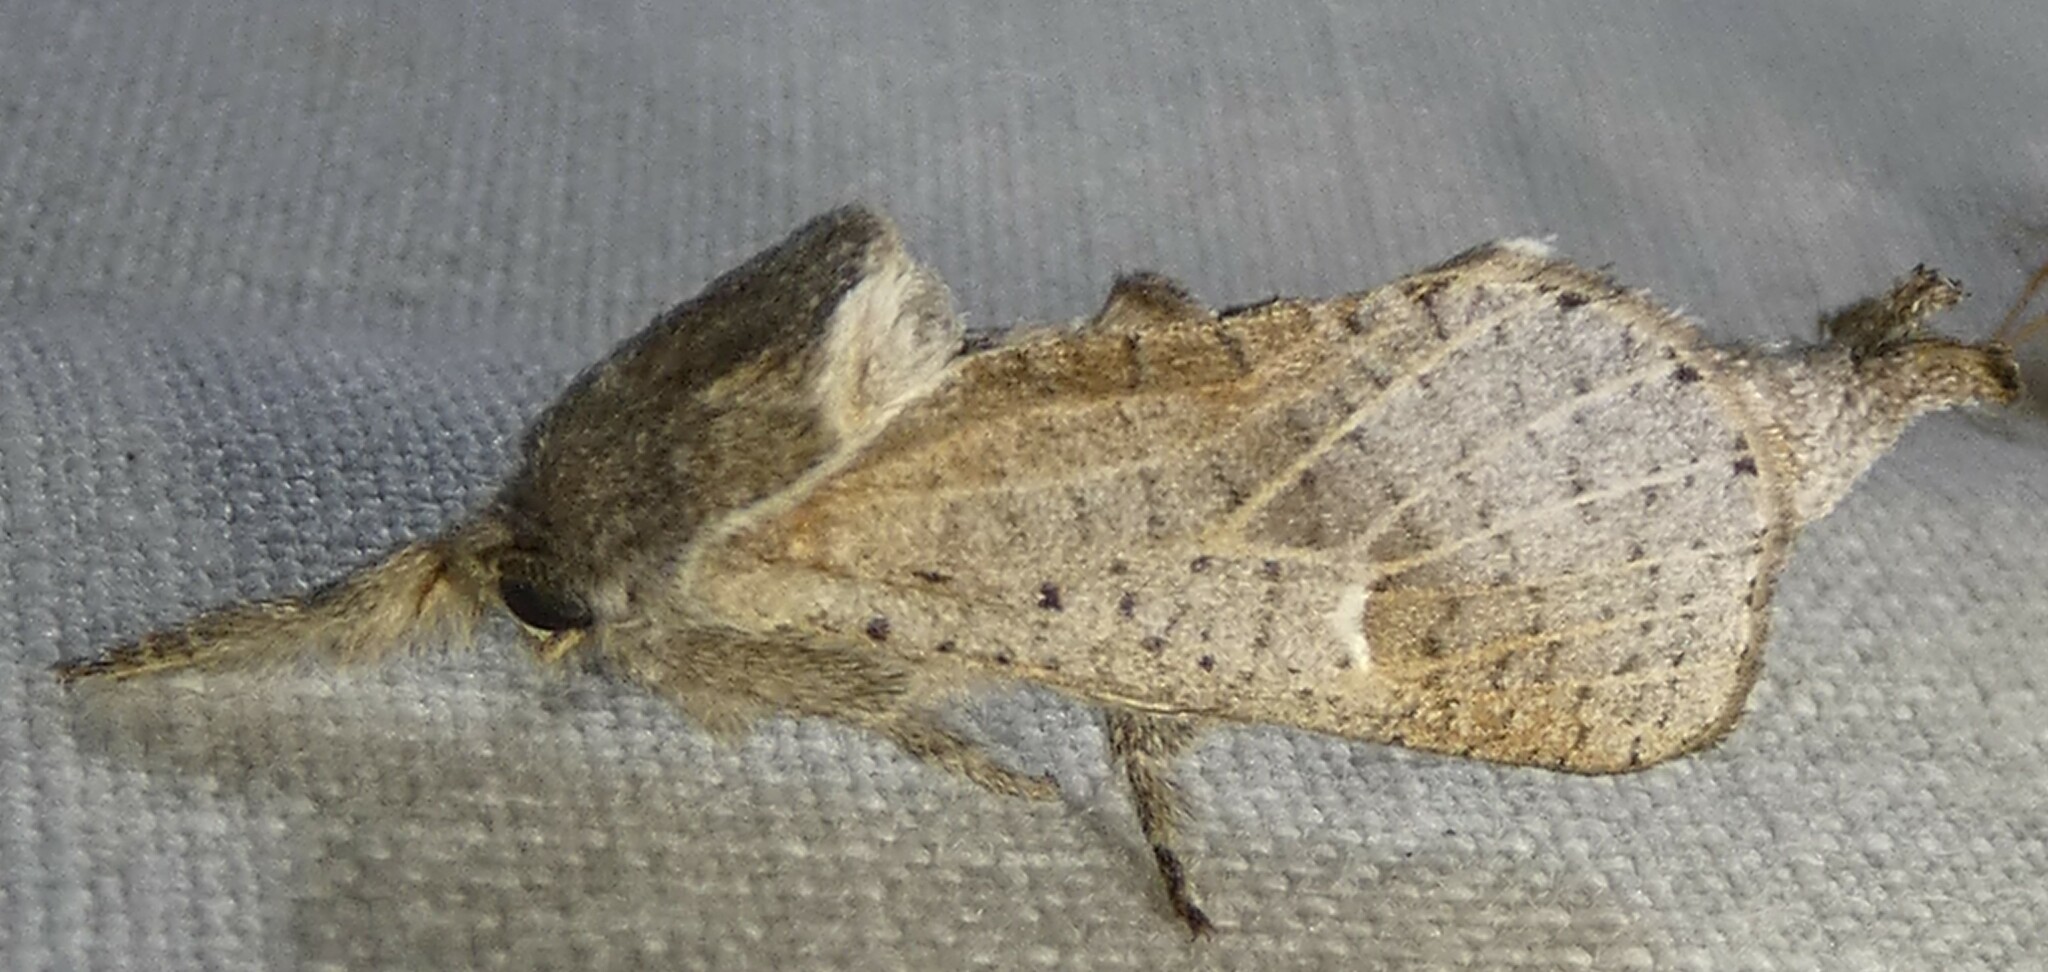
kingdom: Animalia
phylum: Arthropoda
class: Insecta
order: Lepidoptera
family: Cossidae
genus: Givira
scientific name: Givira anna
